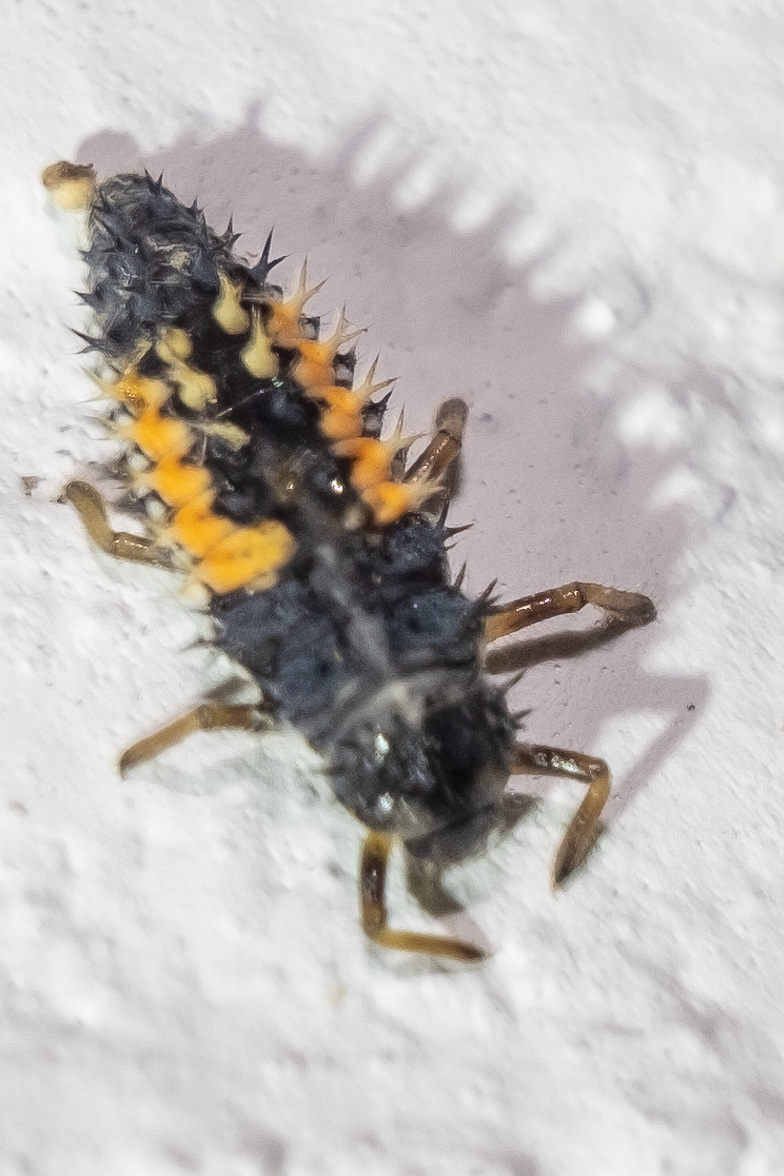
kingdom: Animalia
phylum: Arthropoda
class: Insecta
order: Coleoptera
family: Coccinellidae
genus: Harmonia
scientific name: Harmonia axyridis
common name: Harlequin ladybird
